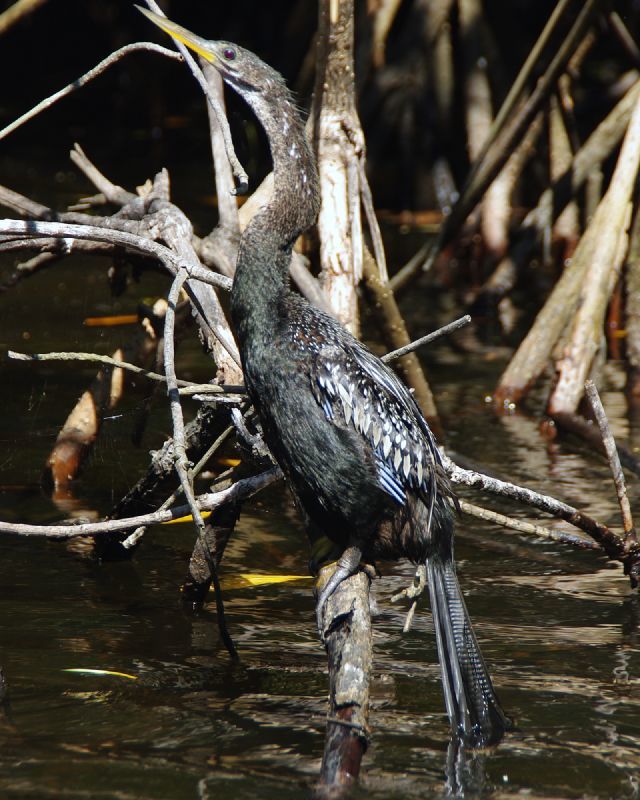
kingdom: Animalia
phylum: Chordata
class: Aves
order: Suliformes
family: Anhingidae
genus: Anhinga
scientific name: Anhinga anhinga
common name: Anhinga
